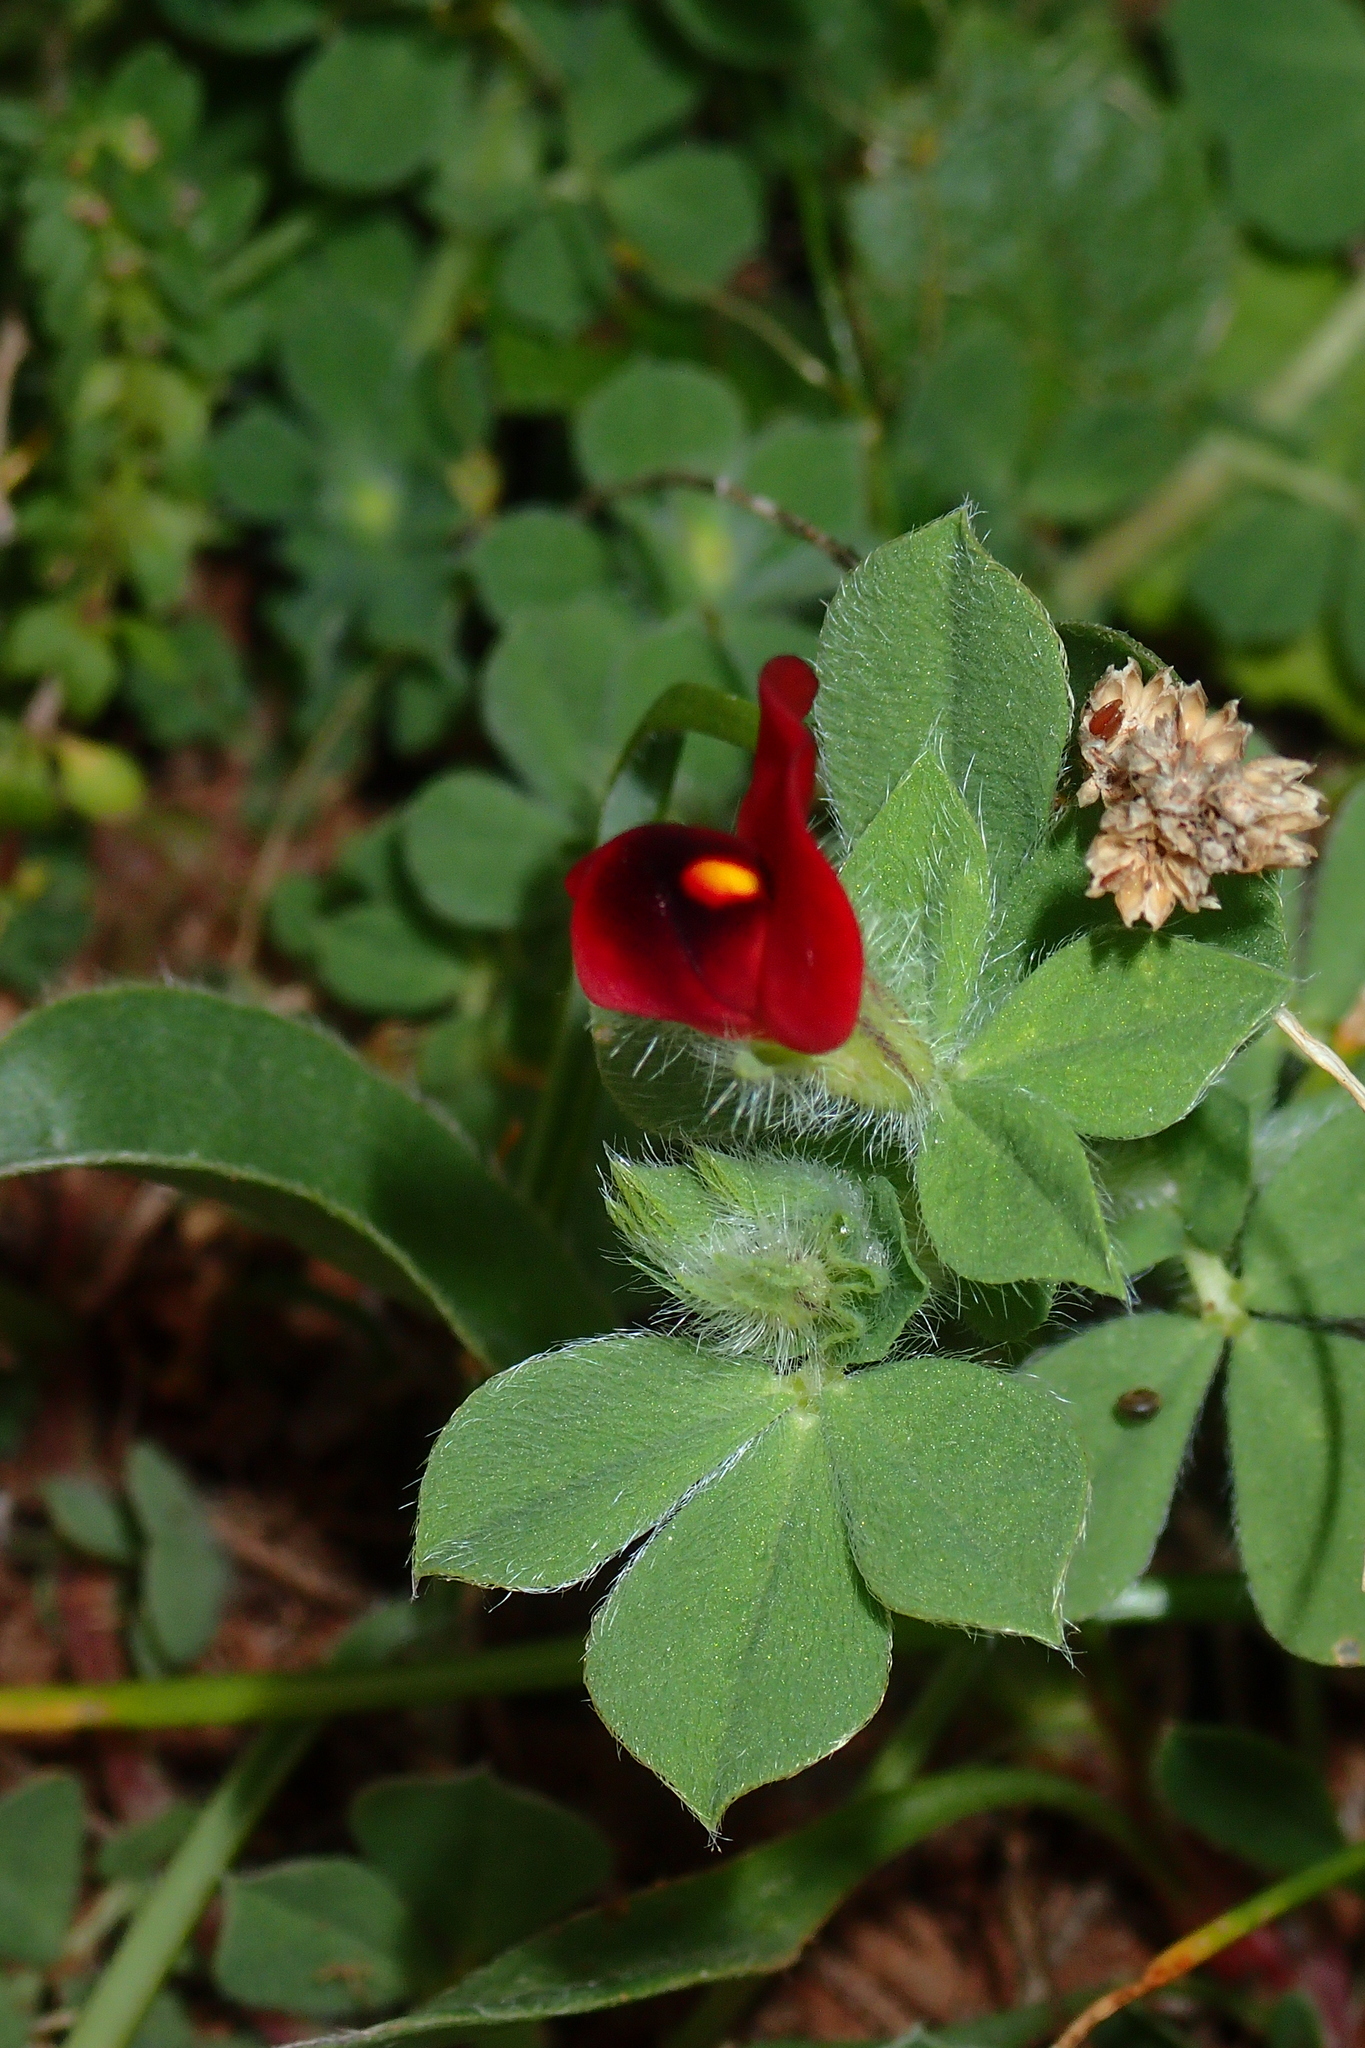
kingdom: Plantae
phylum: Tracheophyta
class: Magnoliopsida
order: Fabales
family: Fabaceae
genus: Lotus
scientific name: Lotus tetragonolobus
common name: Asparagus-pea
